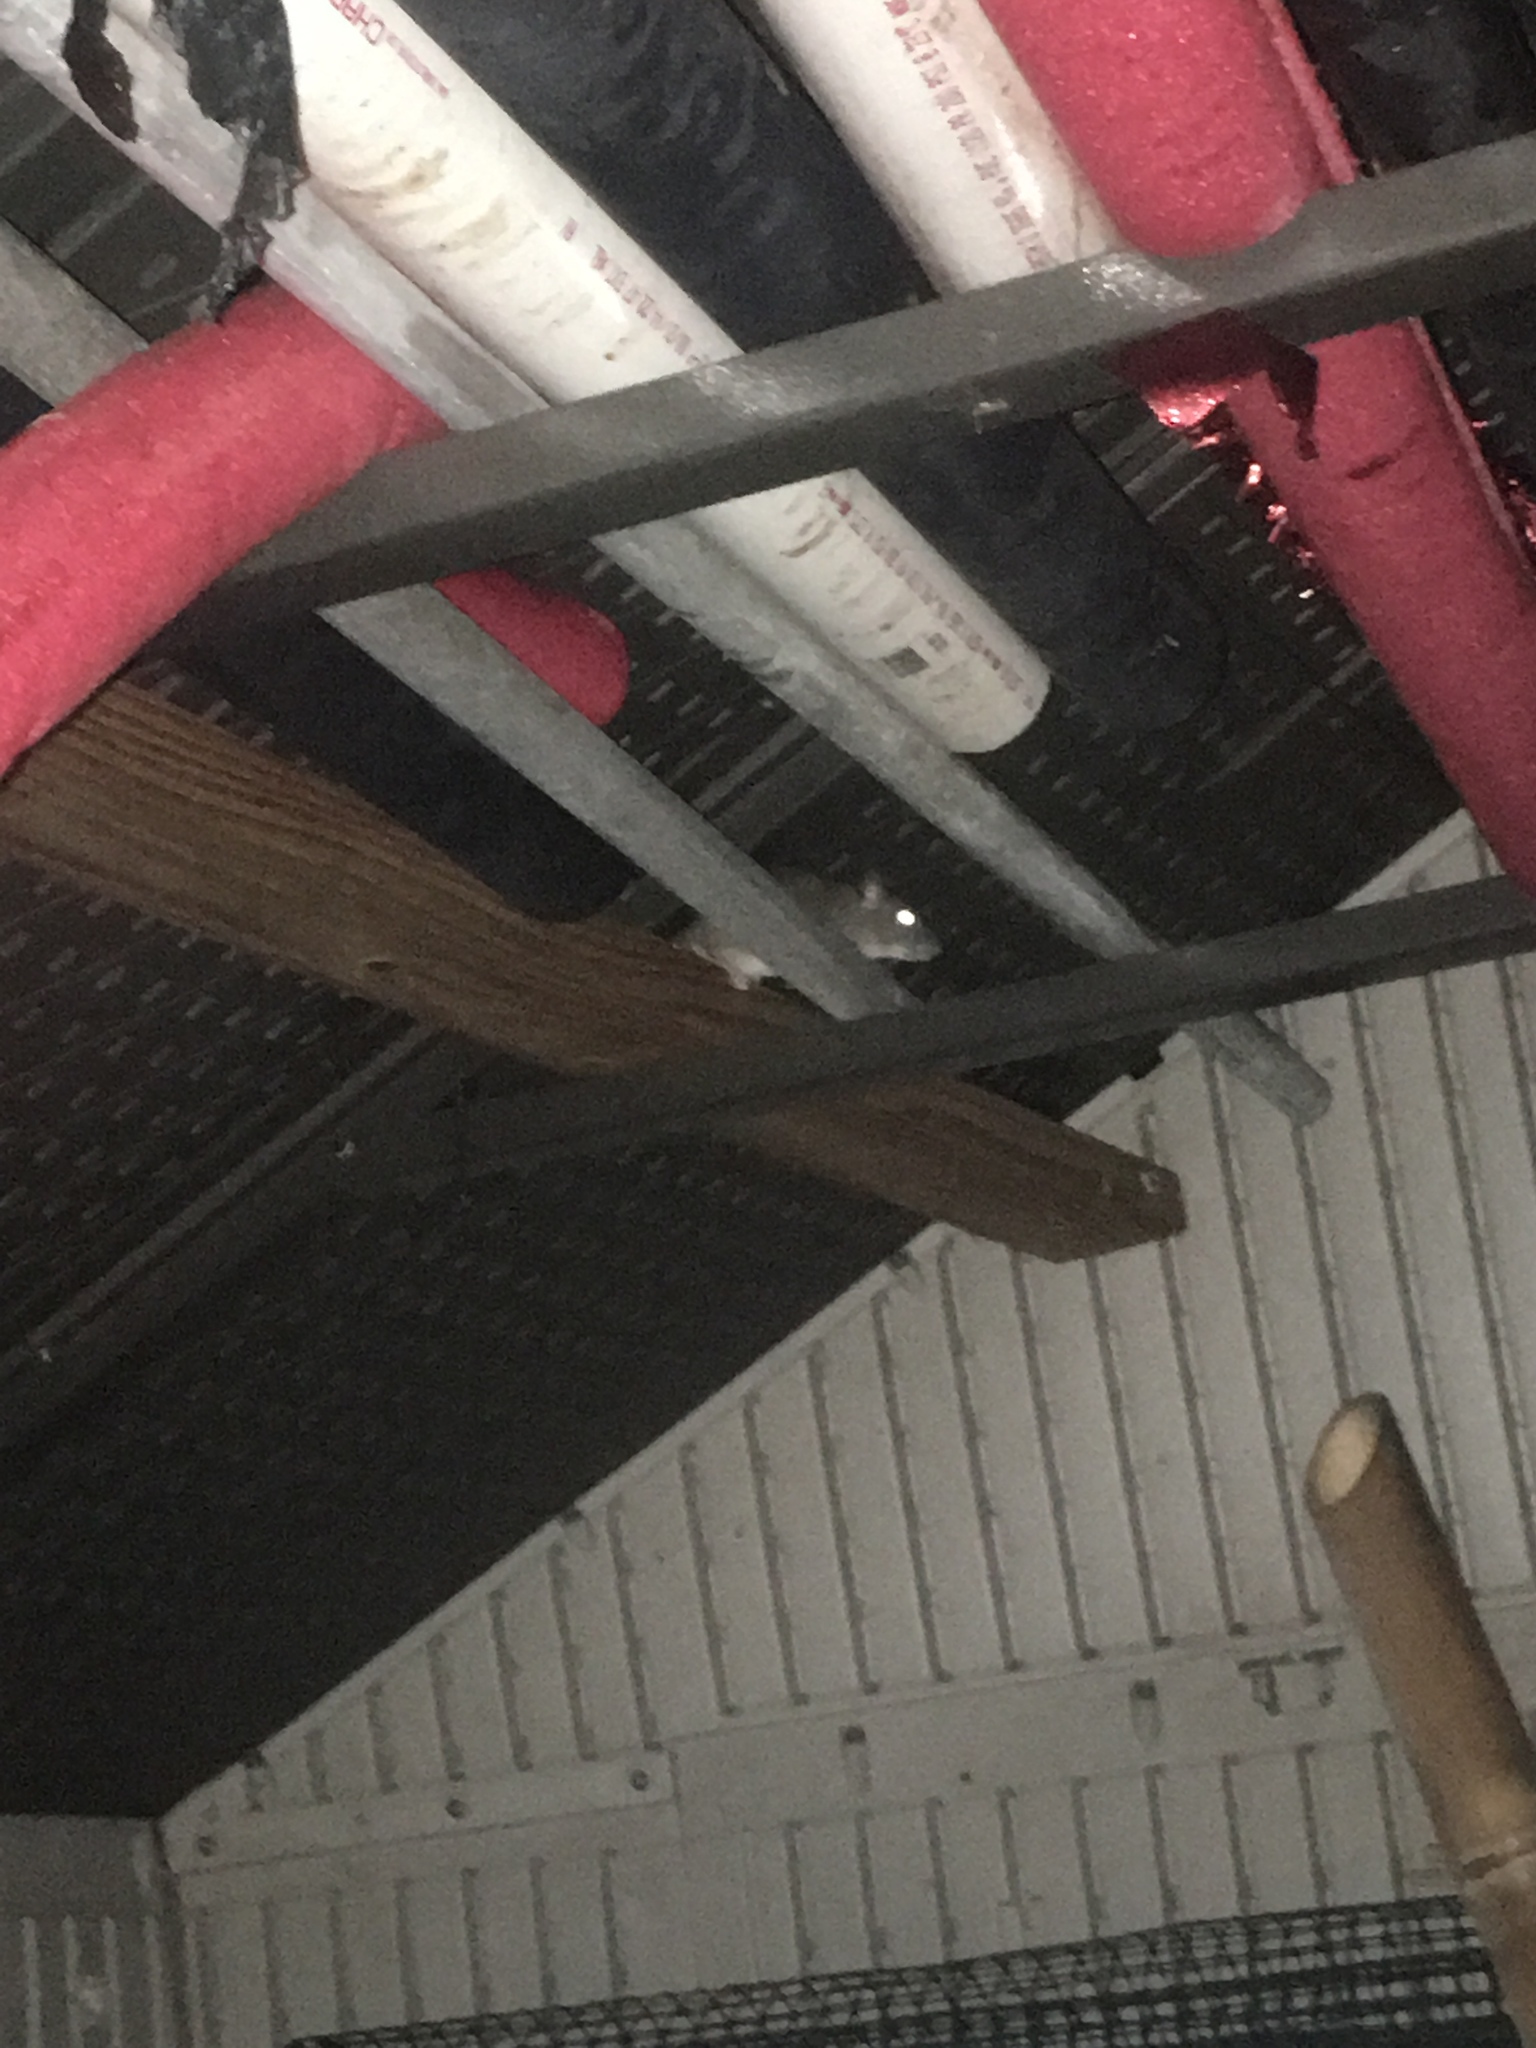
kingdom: Animalia
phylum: Chordata
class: Mammalia
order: Rodentia
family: Muridae
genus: Rattus
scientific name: Rattus rattus
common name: Black rat
